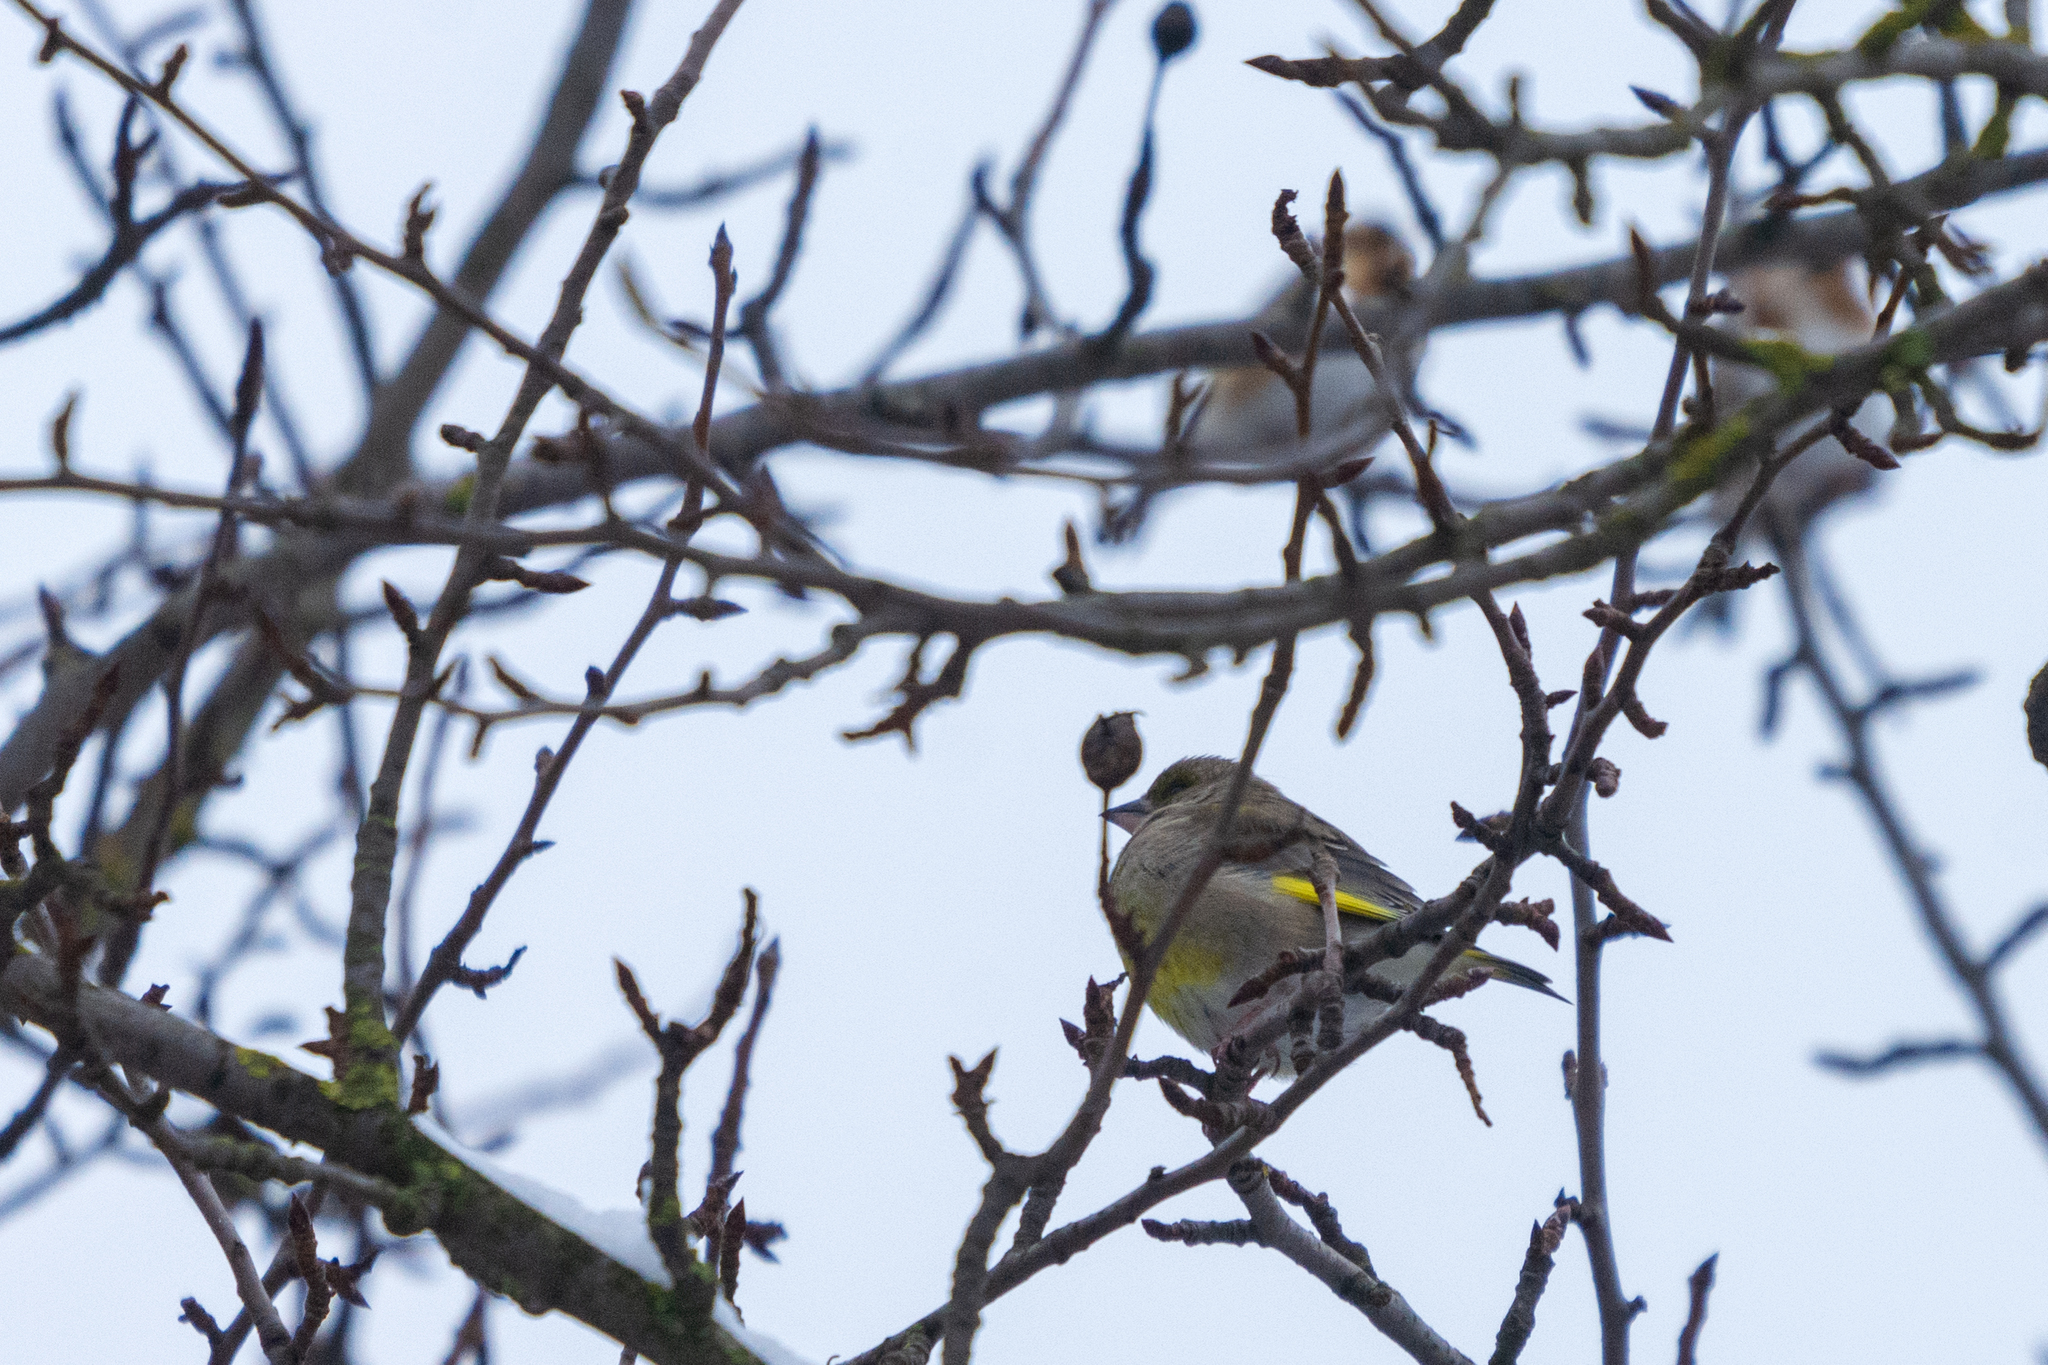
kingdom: Plantae
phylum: Tracheophyta
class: Liliopsida
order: Poales
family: Poaceae
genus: Chloris
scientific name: Chloris chloris
